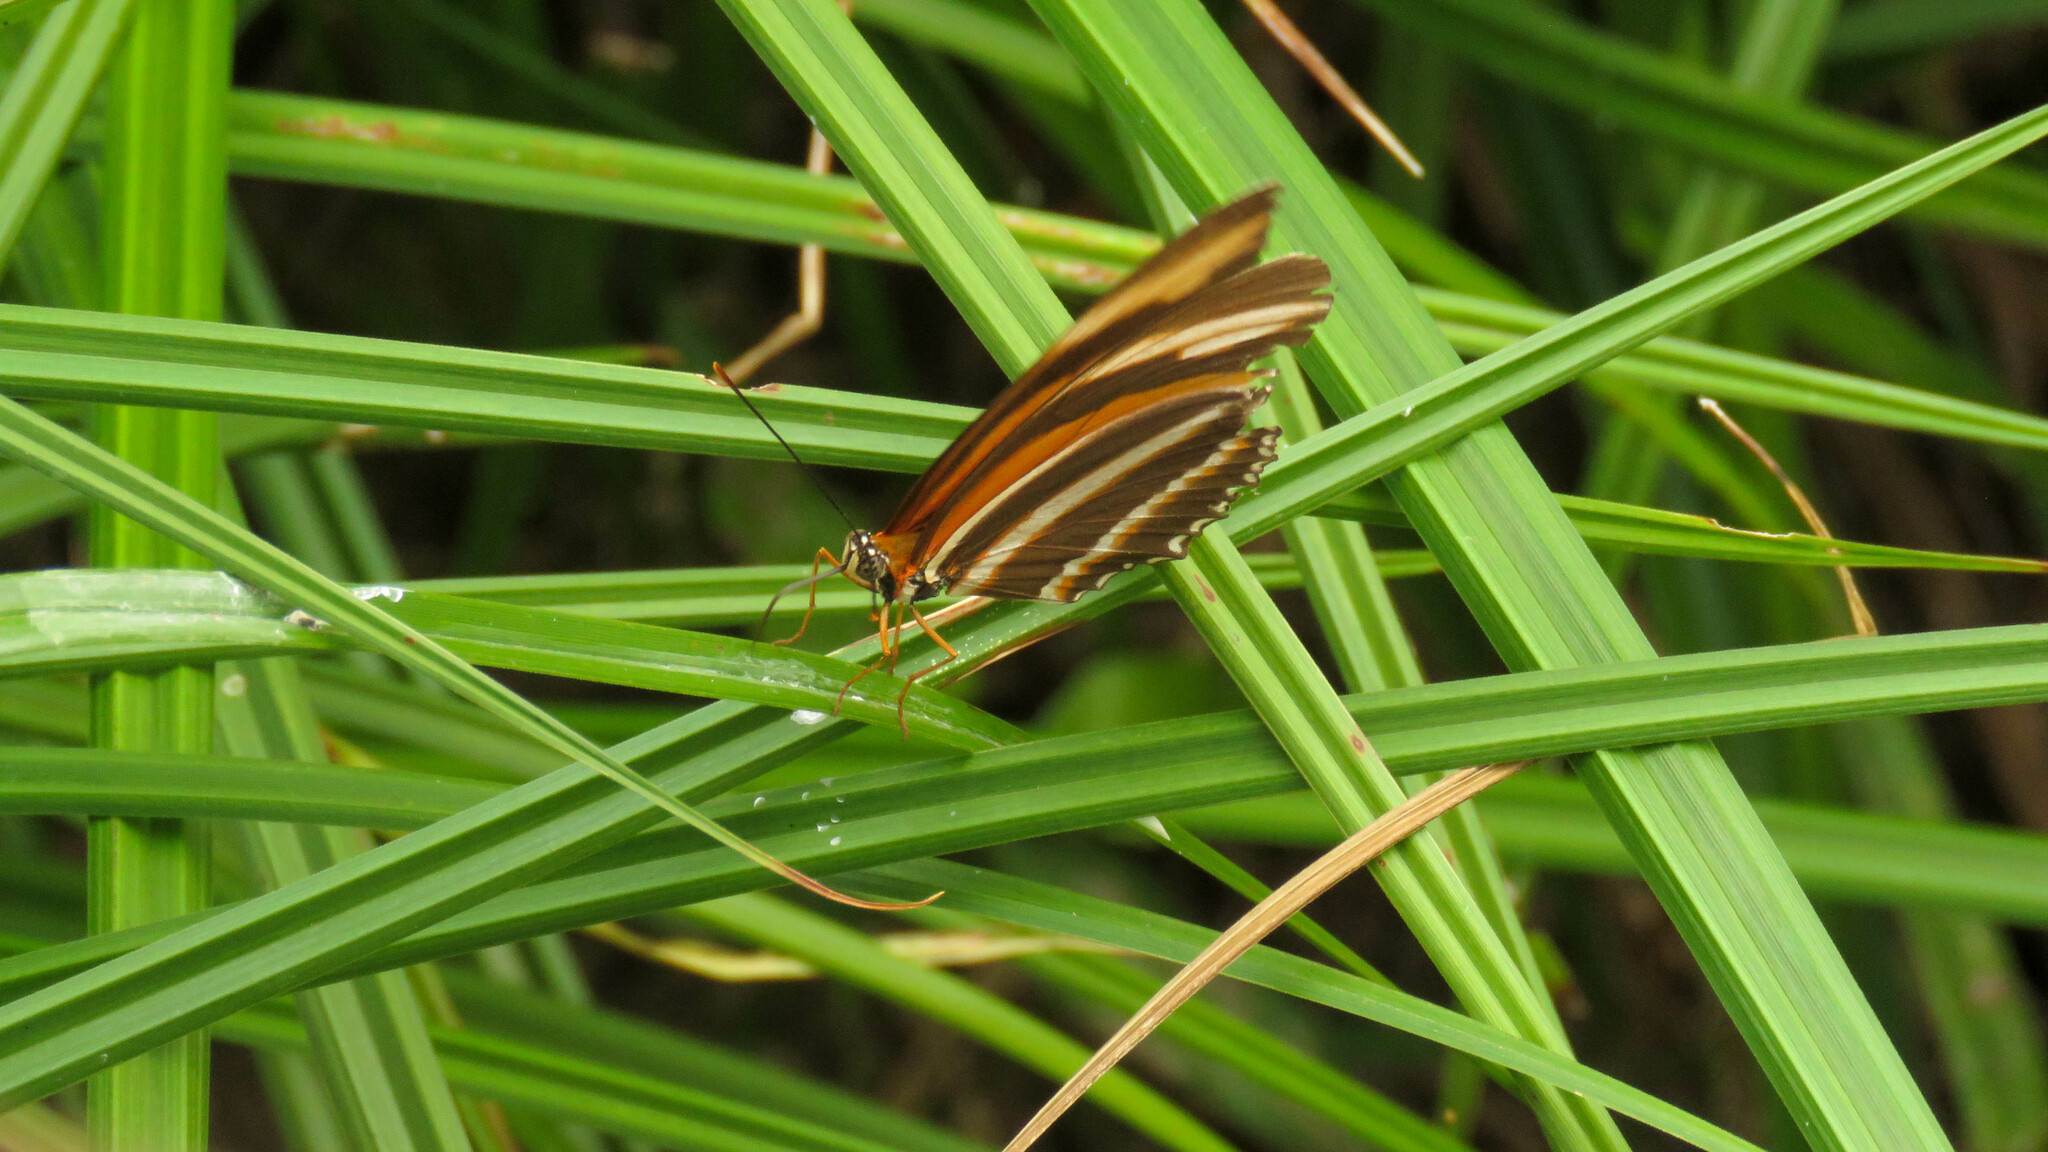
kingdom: Animalia
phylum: Arthropoda
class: Insecta
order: Lepidoptera
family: Nymphalidae
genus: Dryadula
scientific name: Dryadula phaetusa
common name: Banded orange heliconian
